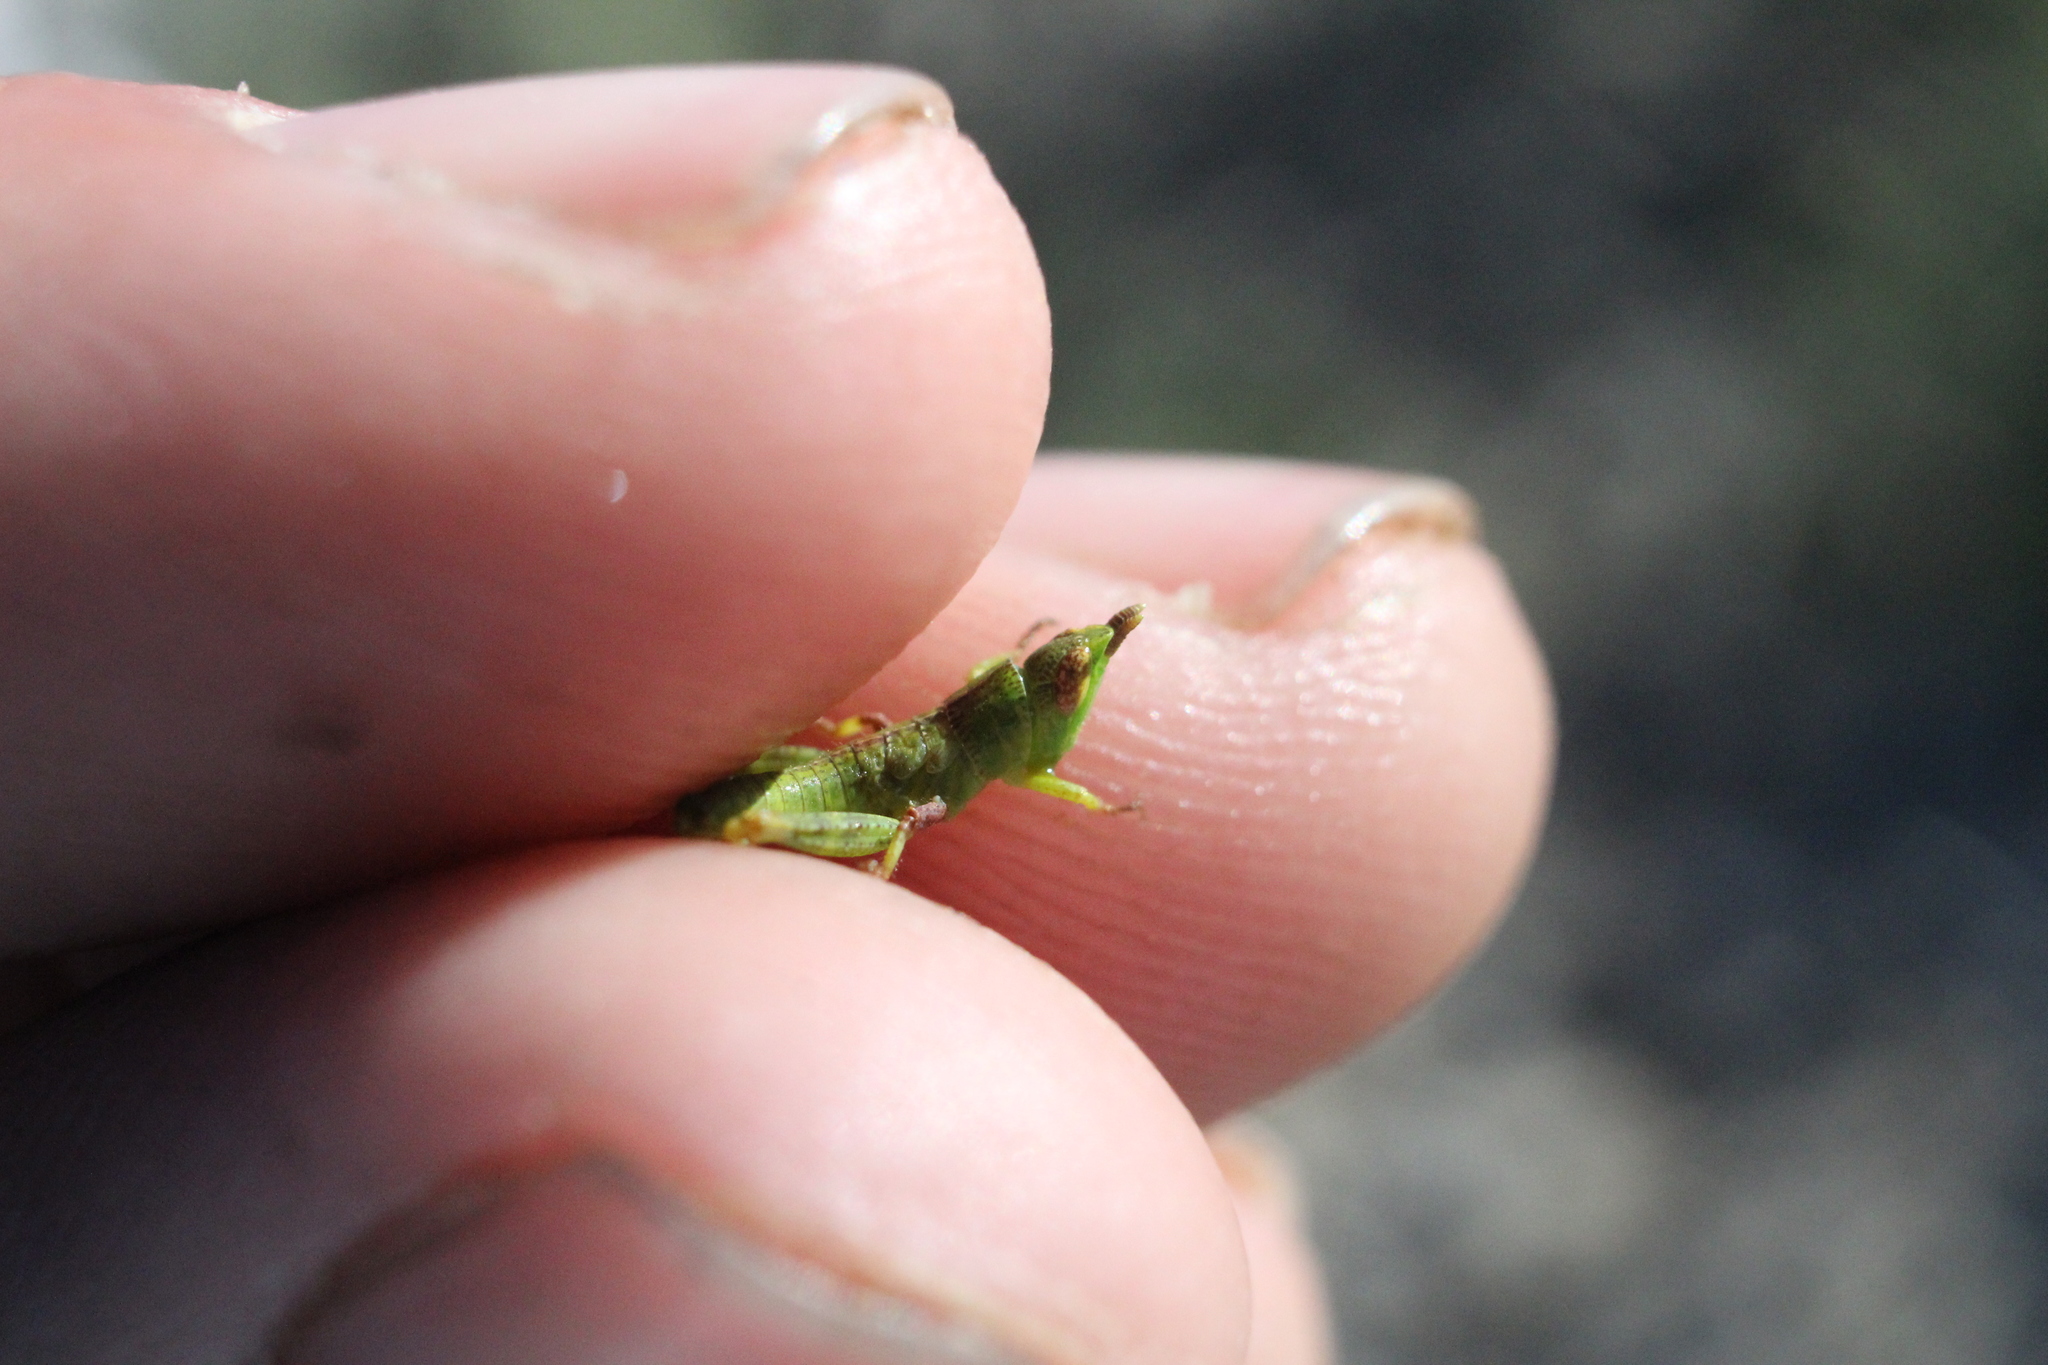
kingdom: Animalia
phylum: Arthropoda
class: Insecta
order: Orthoptera
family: Acrididae
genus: Bootettix
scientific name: Bootettix argentatus
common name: Creosote bush grasshopper
